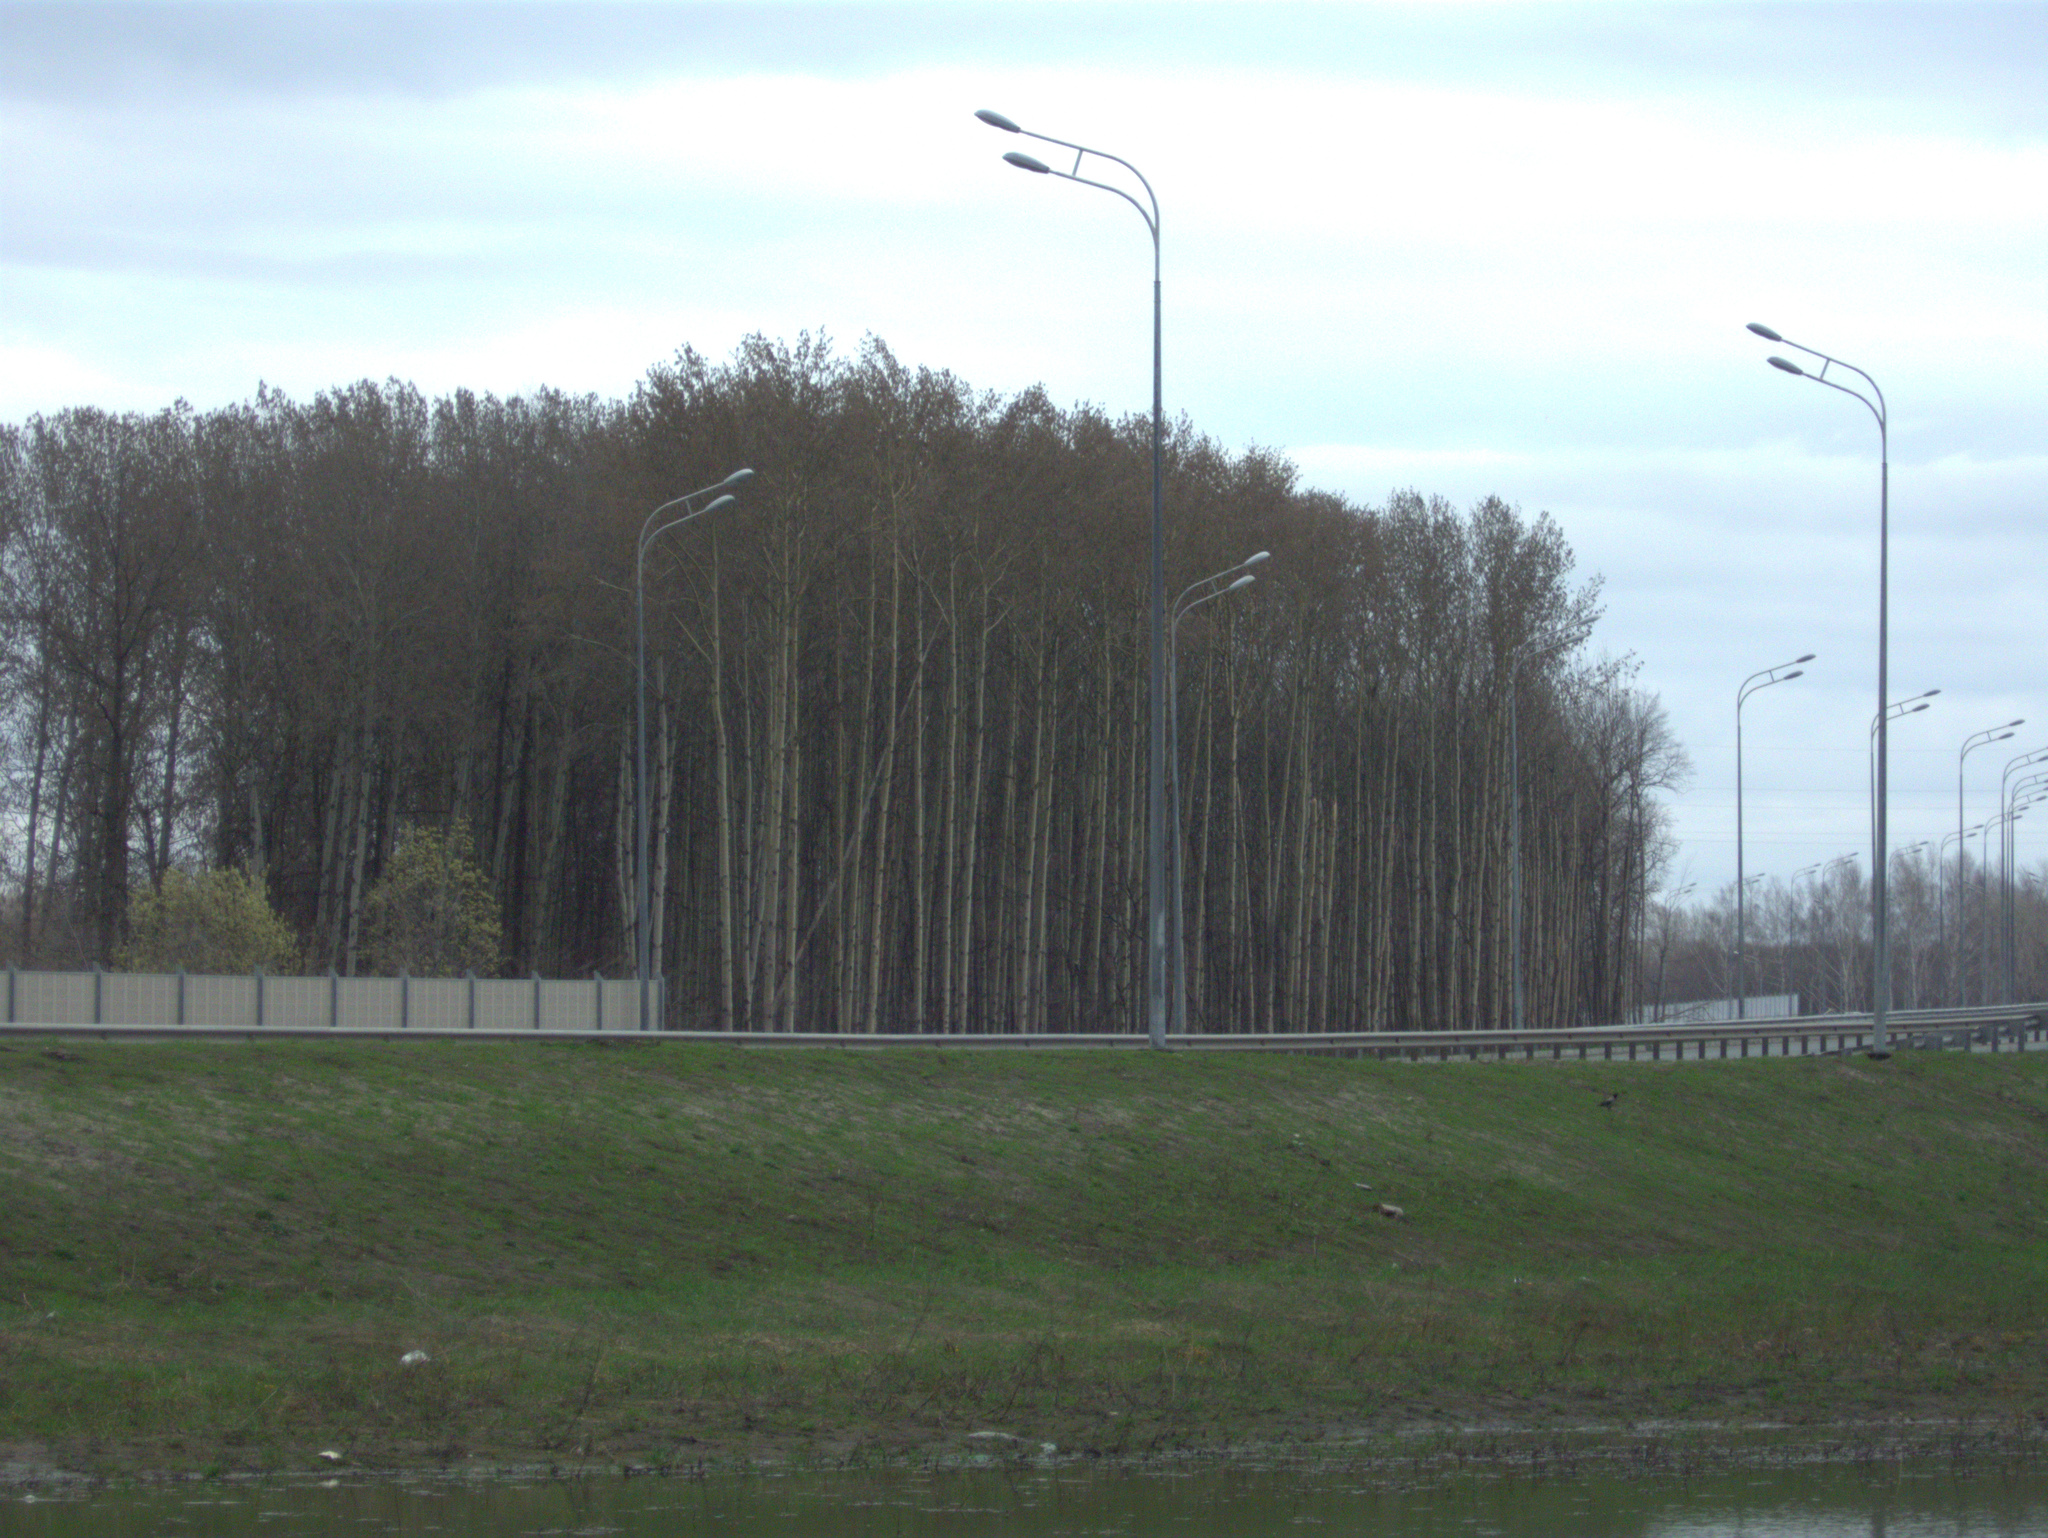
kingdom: Animalia
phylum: Chordata
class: Aves
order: Passeriformes
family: Corvidae
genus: Corvus
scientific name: Corvus cornix
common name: Hooded crow
